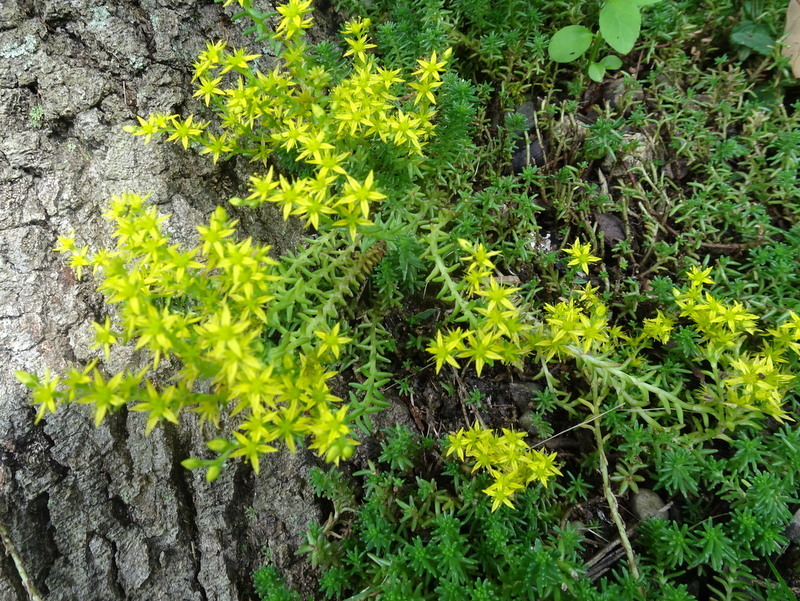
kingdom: Plantae
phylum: Tracheophyta
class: Magnoliopsida
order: Saxifragales
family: Crassulaceae
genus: Sedum
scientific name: Sedum sexangulare
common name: Tasteless stonecrop
